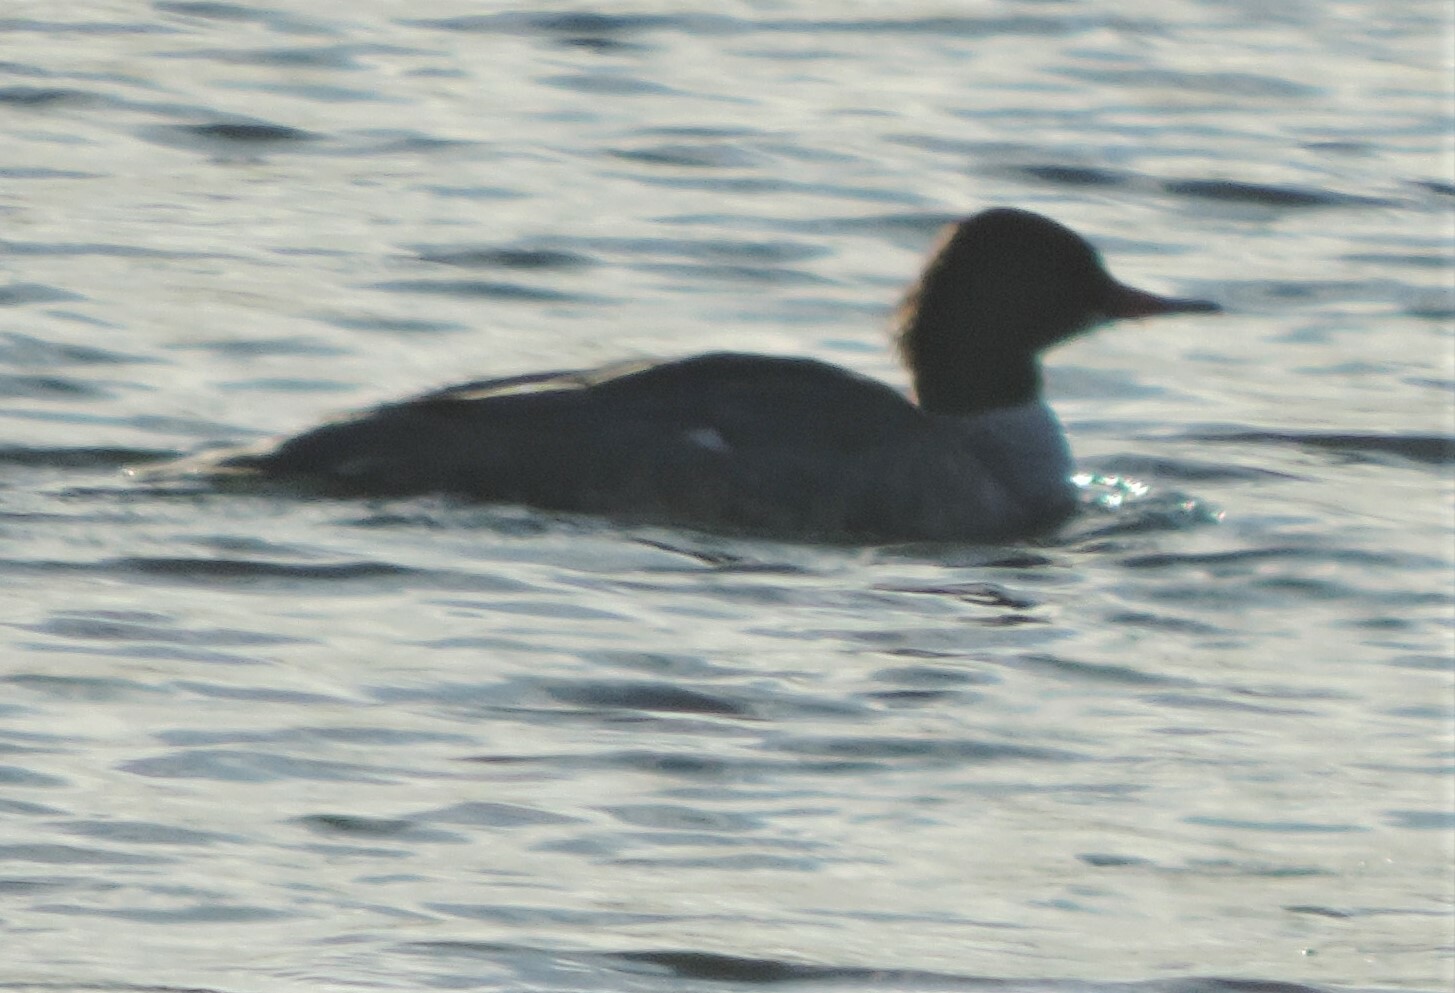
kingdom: Animalia
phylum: Chordata
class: Aves
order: Anseriformes
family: Anatidae
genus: Mergus
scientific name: Mergus merganser
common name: Common merganser
